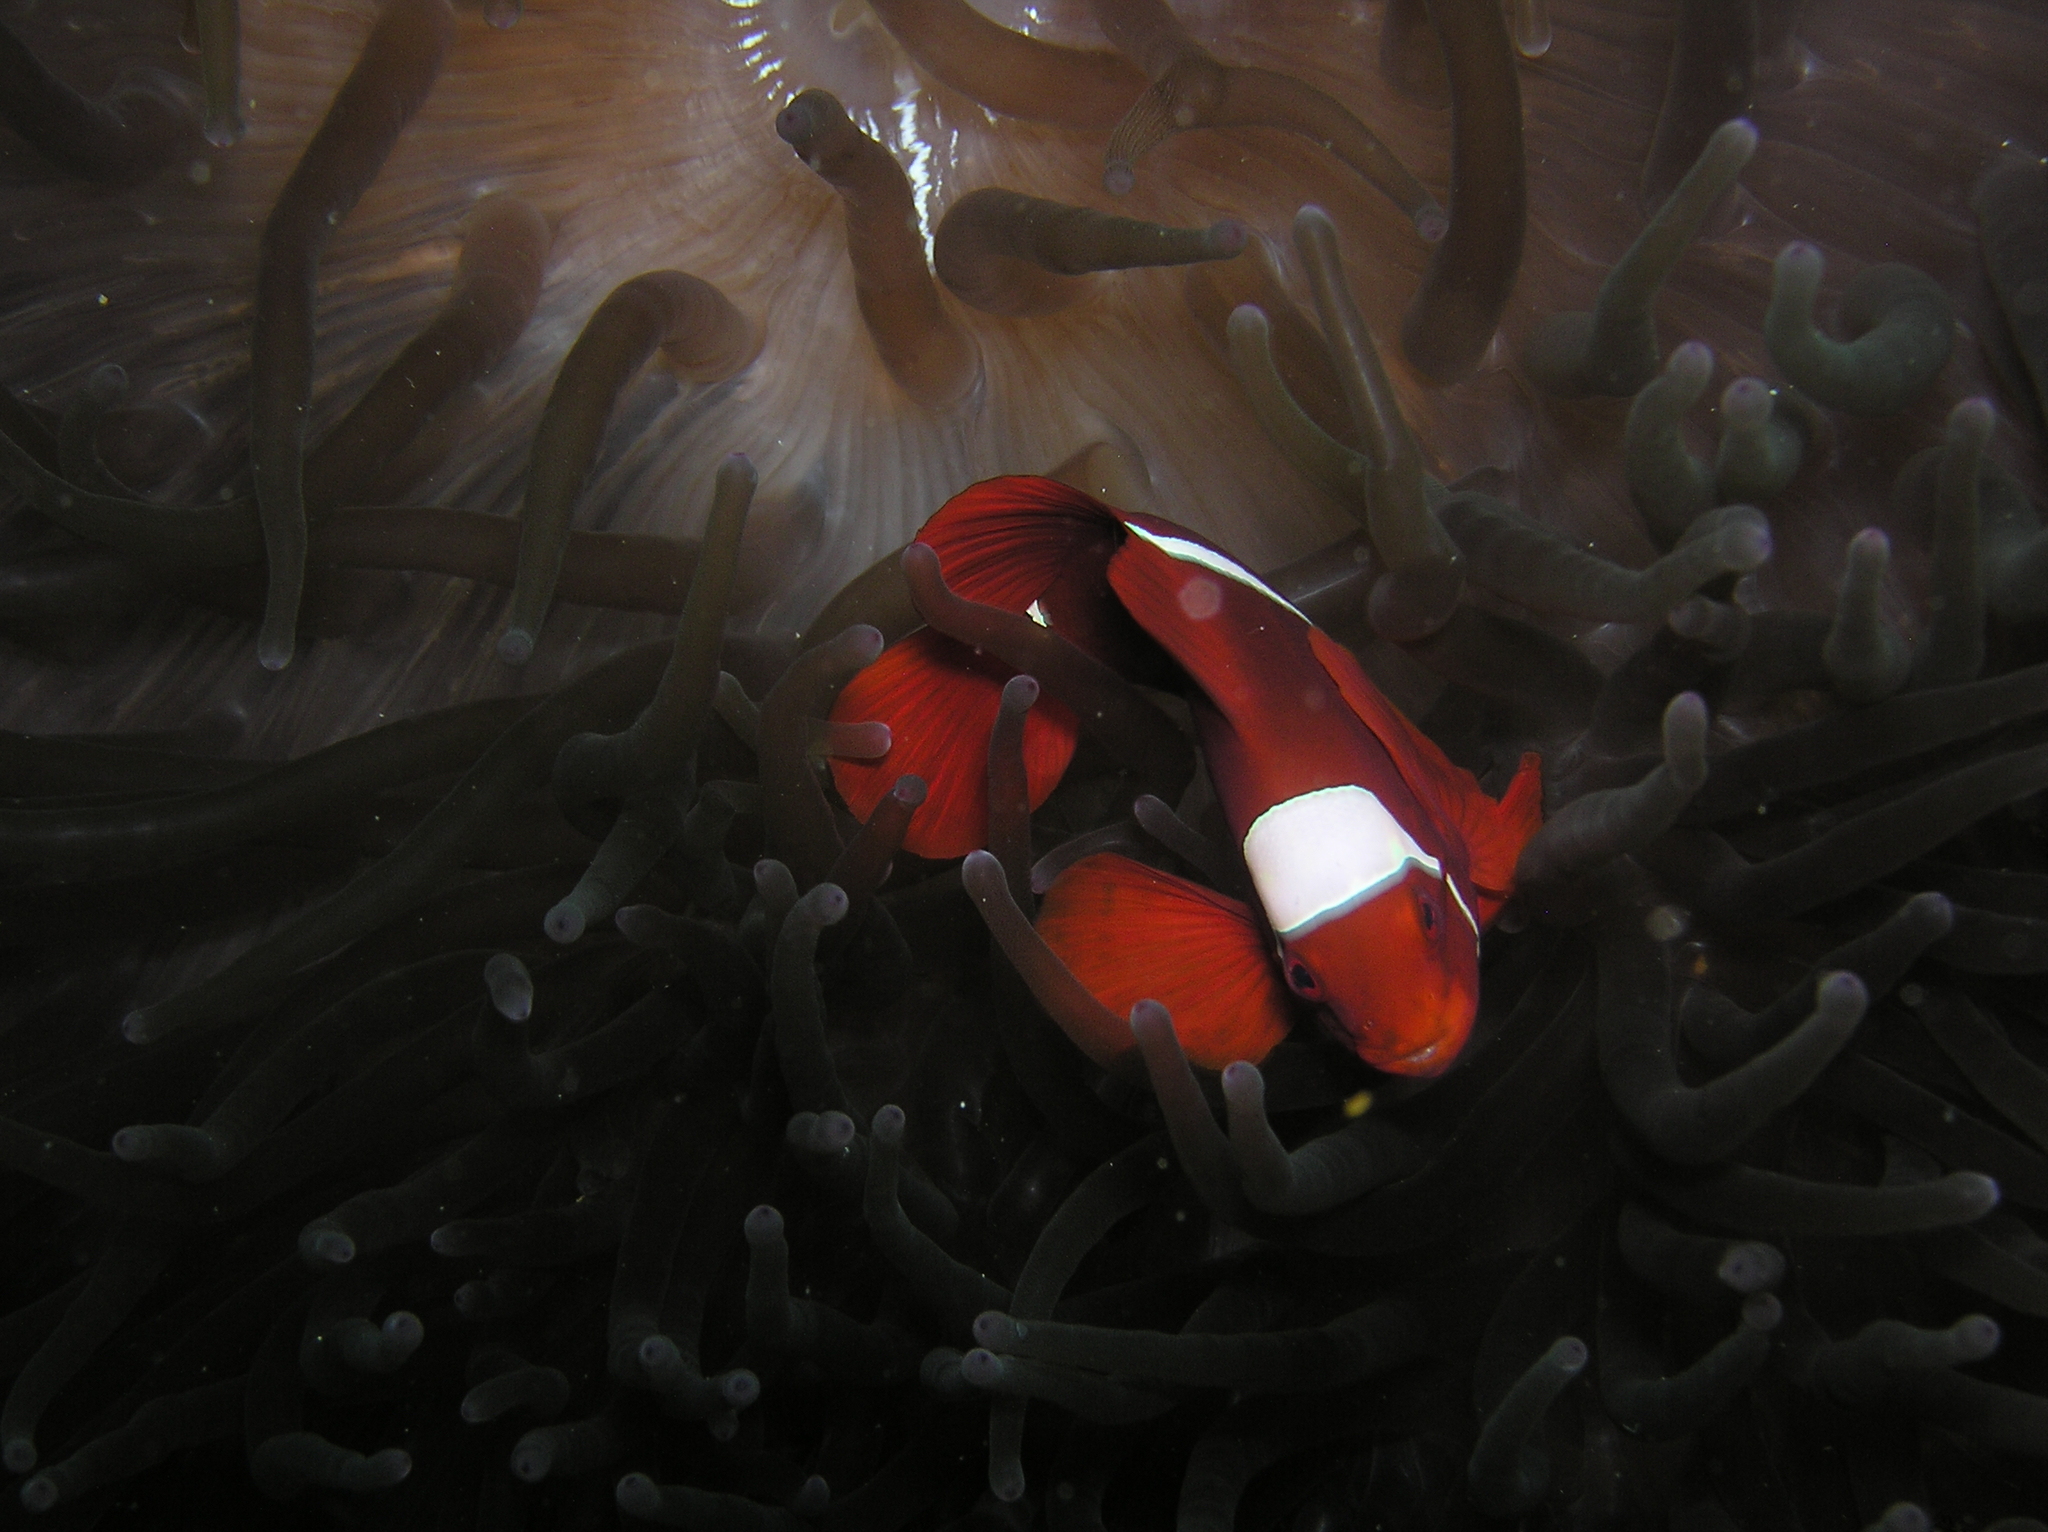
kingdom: Animalia
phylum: Chordata
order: Perciformes
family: Pomacentridae
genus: Premnas
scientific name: Premnas biaculeatus
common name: Spinecheek anemonefish
